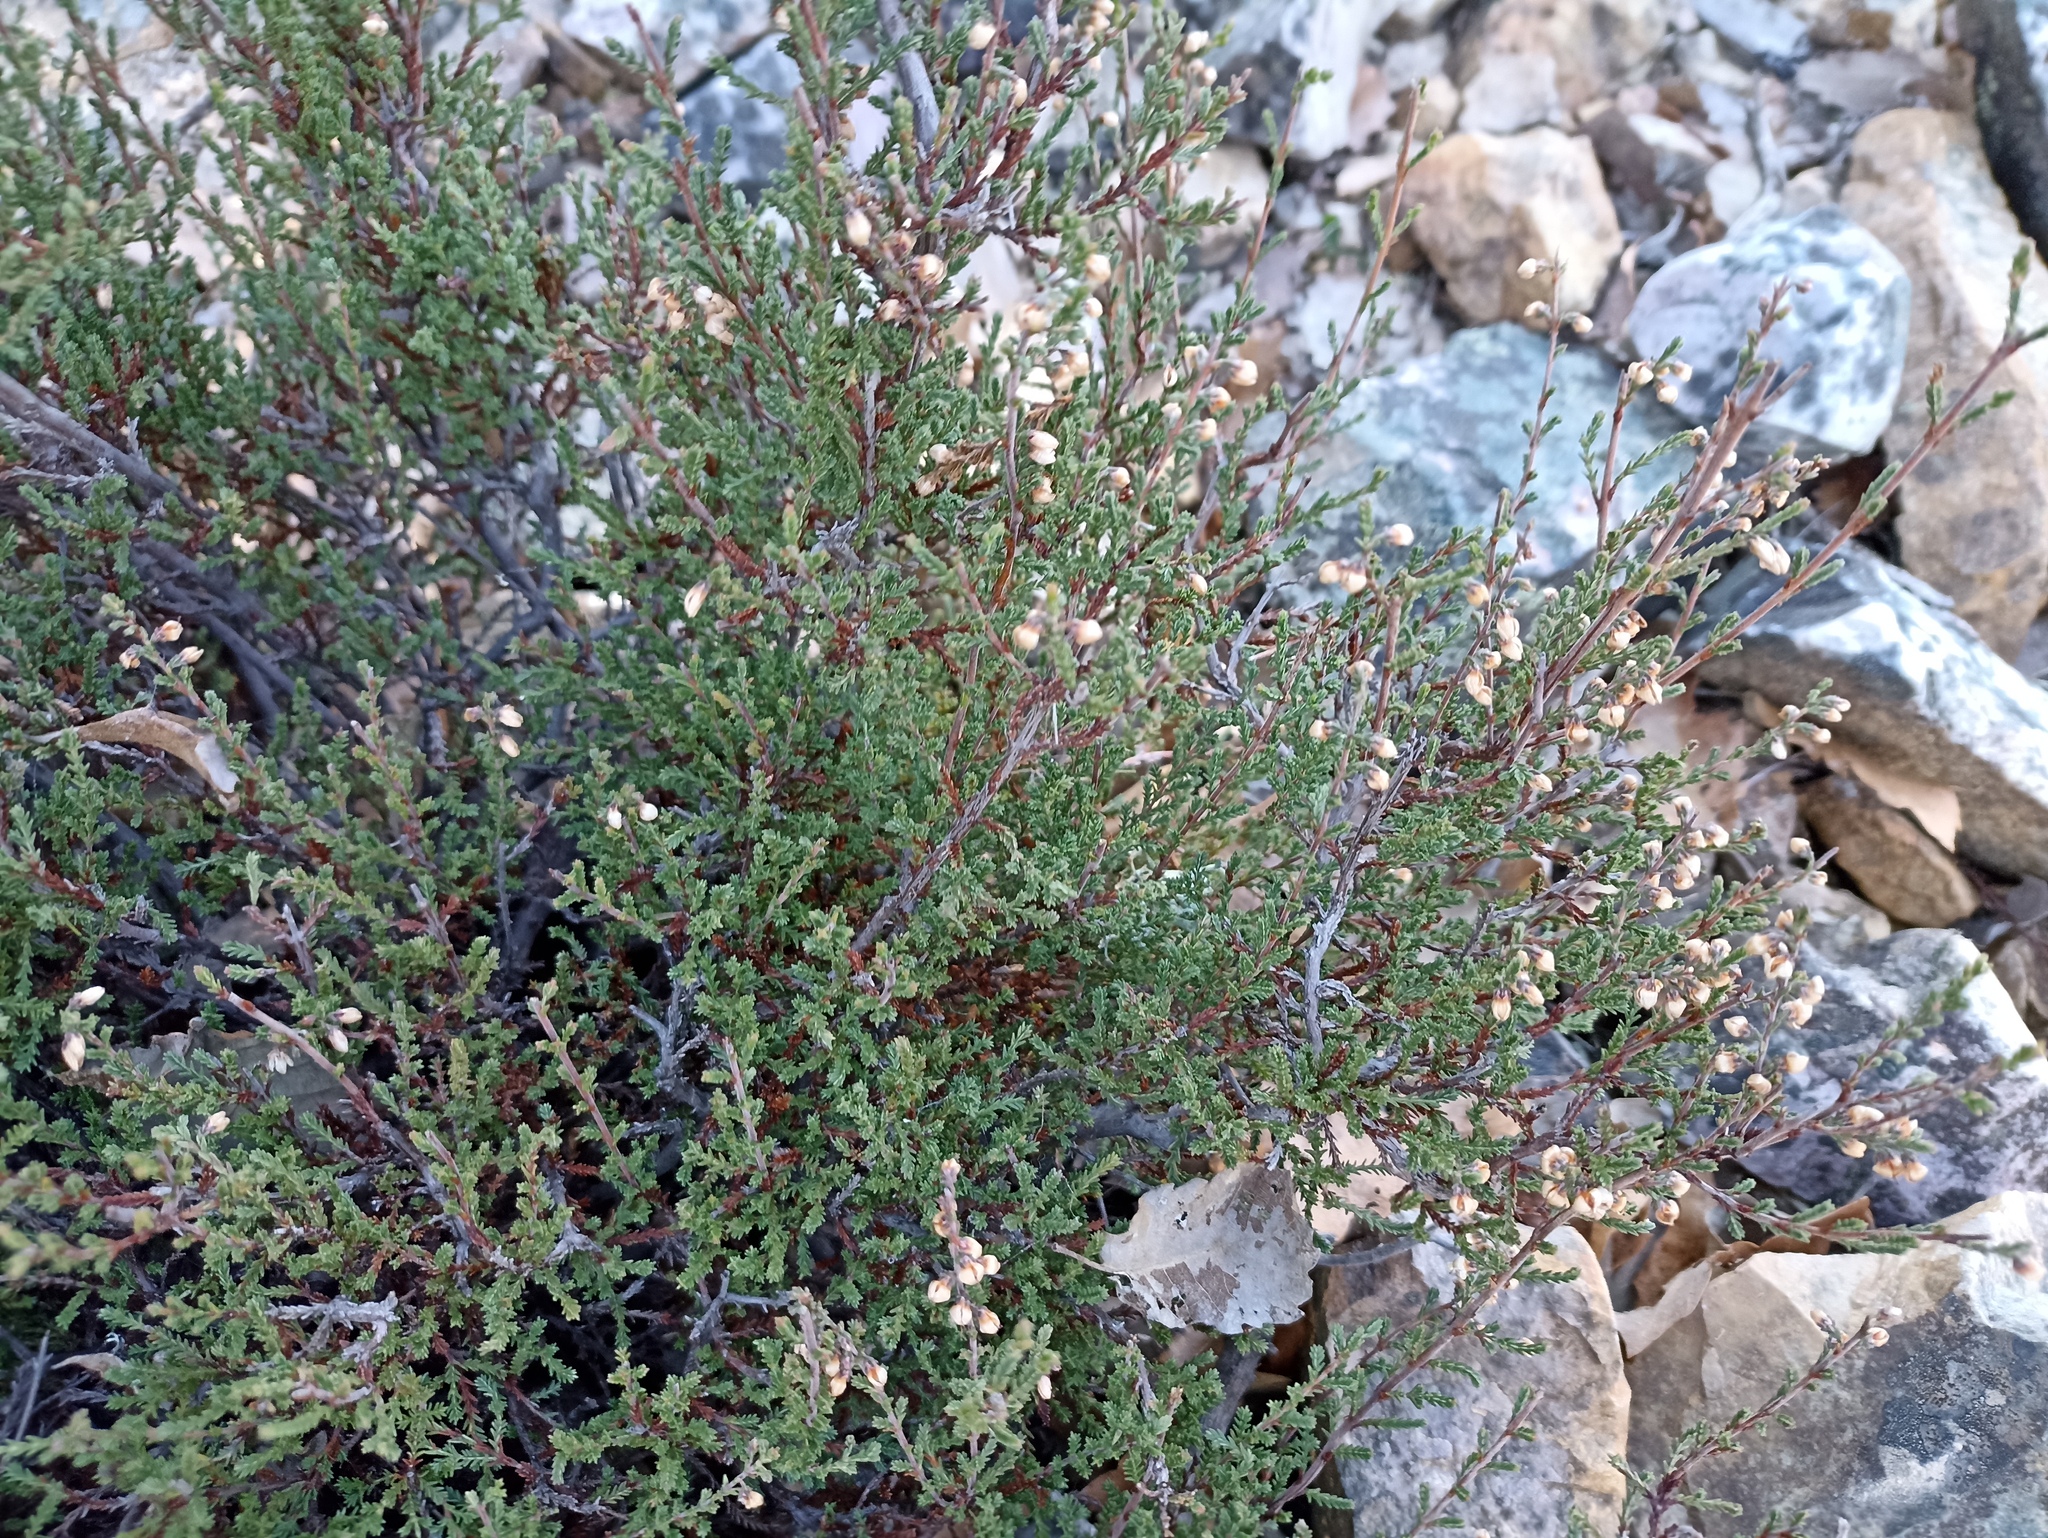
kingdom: Plantae
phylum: Tracheophyta
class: Magnoliopsida
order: Ericales
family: Ericaceae
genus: Calluna
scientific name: Calluna vulgaris
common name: Heather
